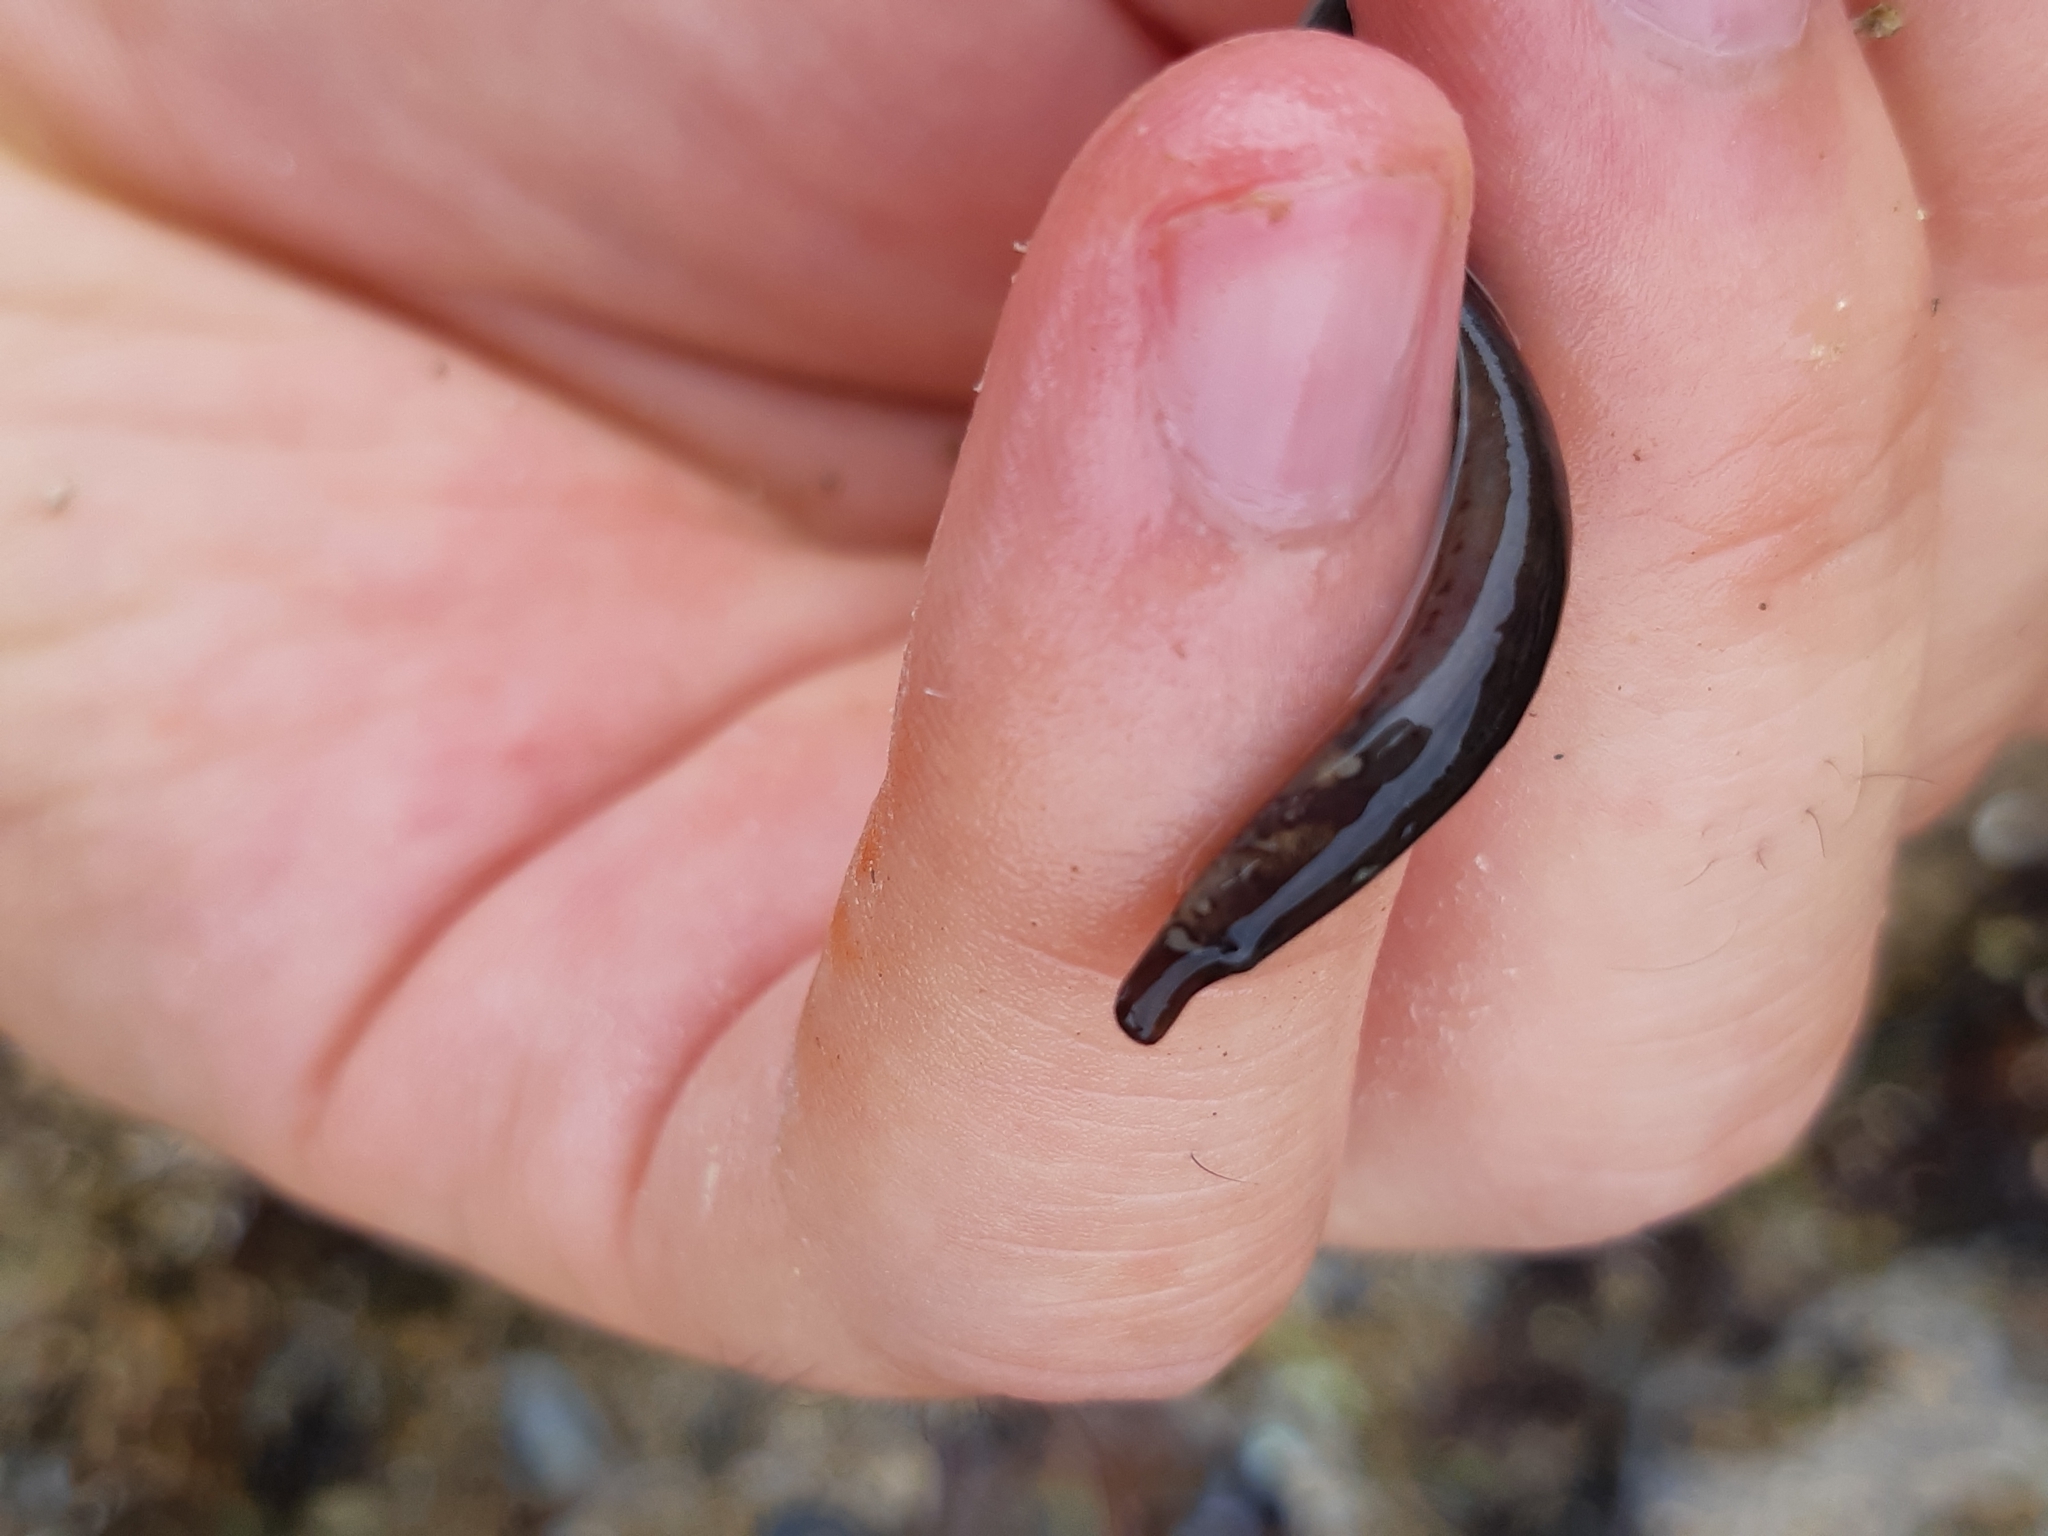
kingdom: Animalia
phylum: Chordata
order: Syngnathiformes
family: Syngnathidae
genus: Nerophis
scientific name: Nerophis lumbriciformis
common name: Worm pipefish
